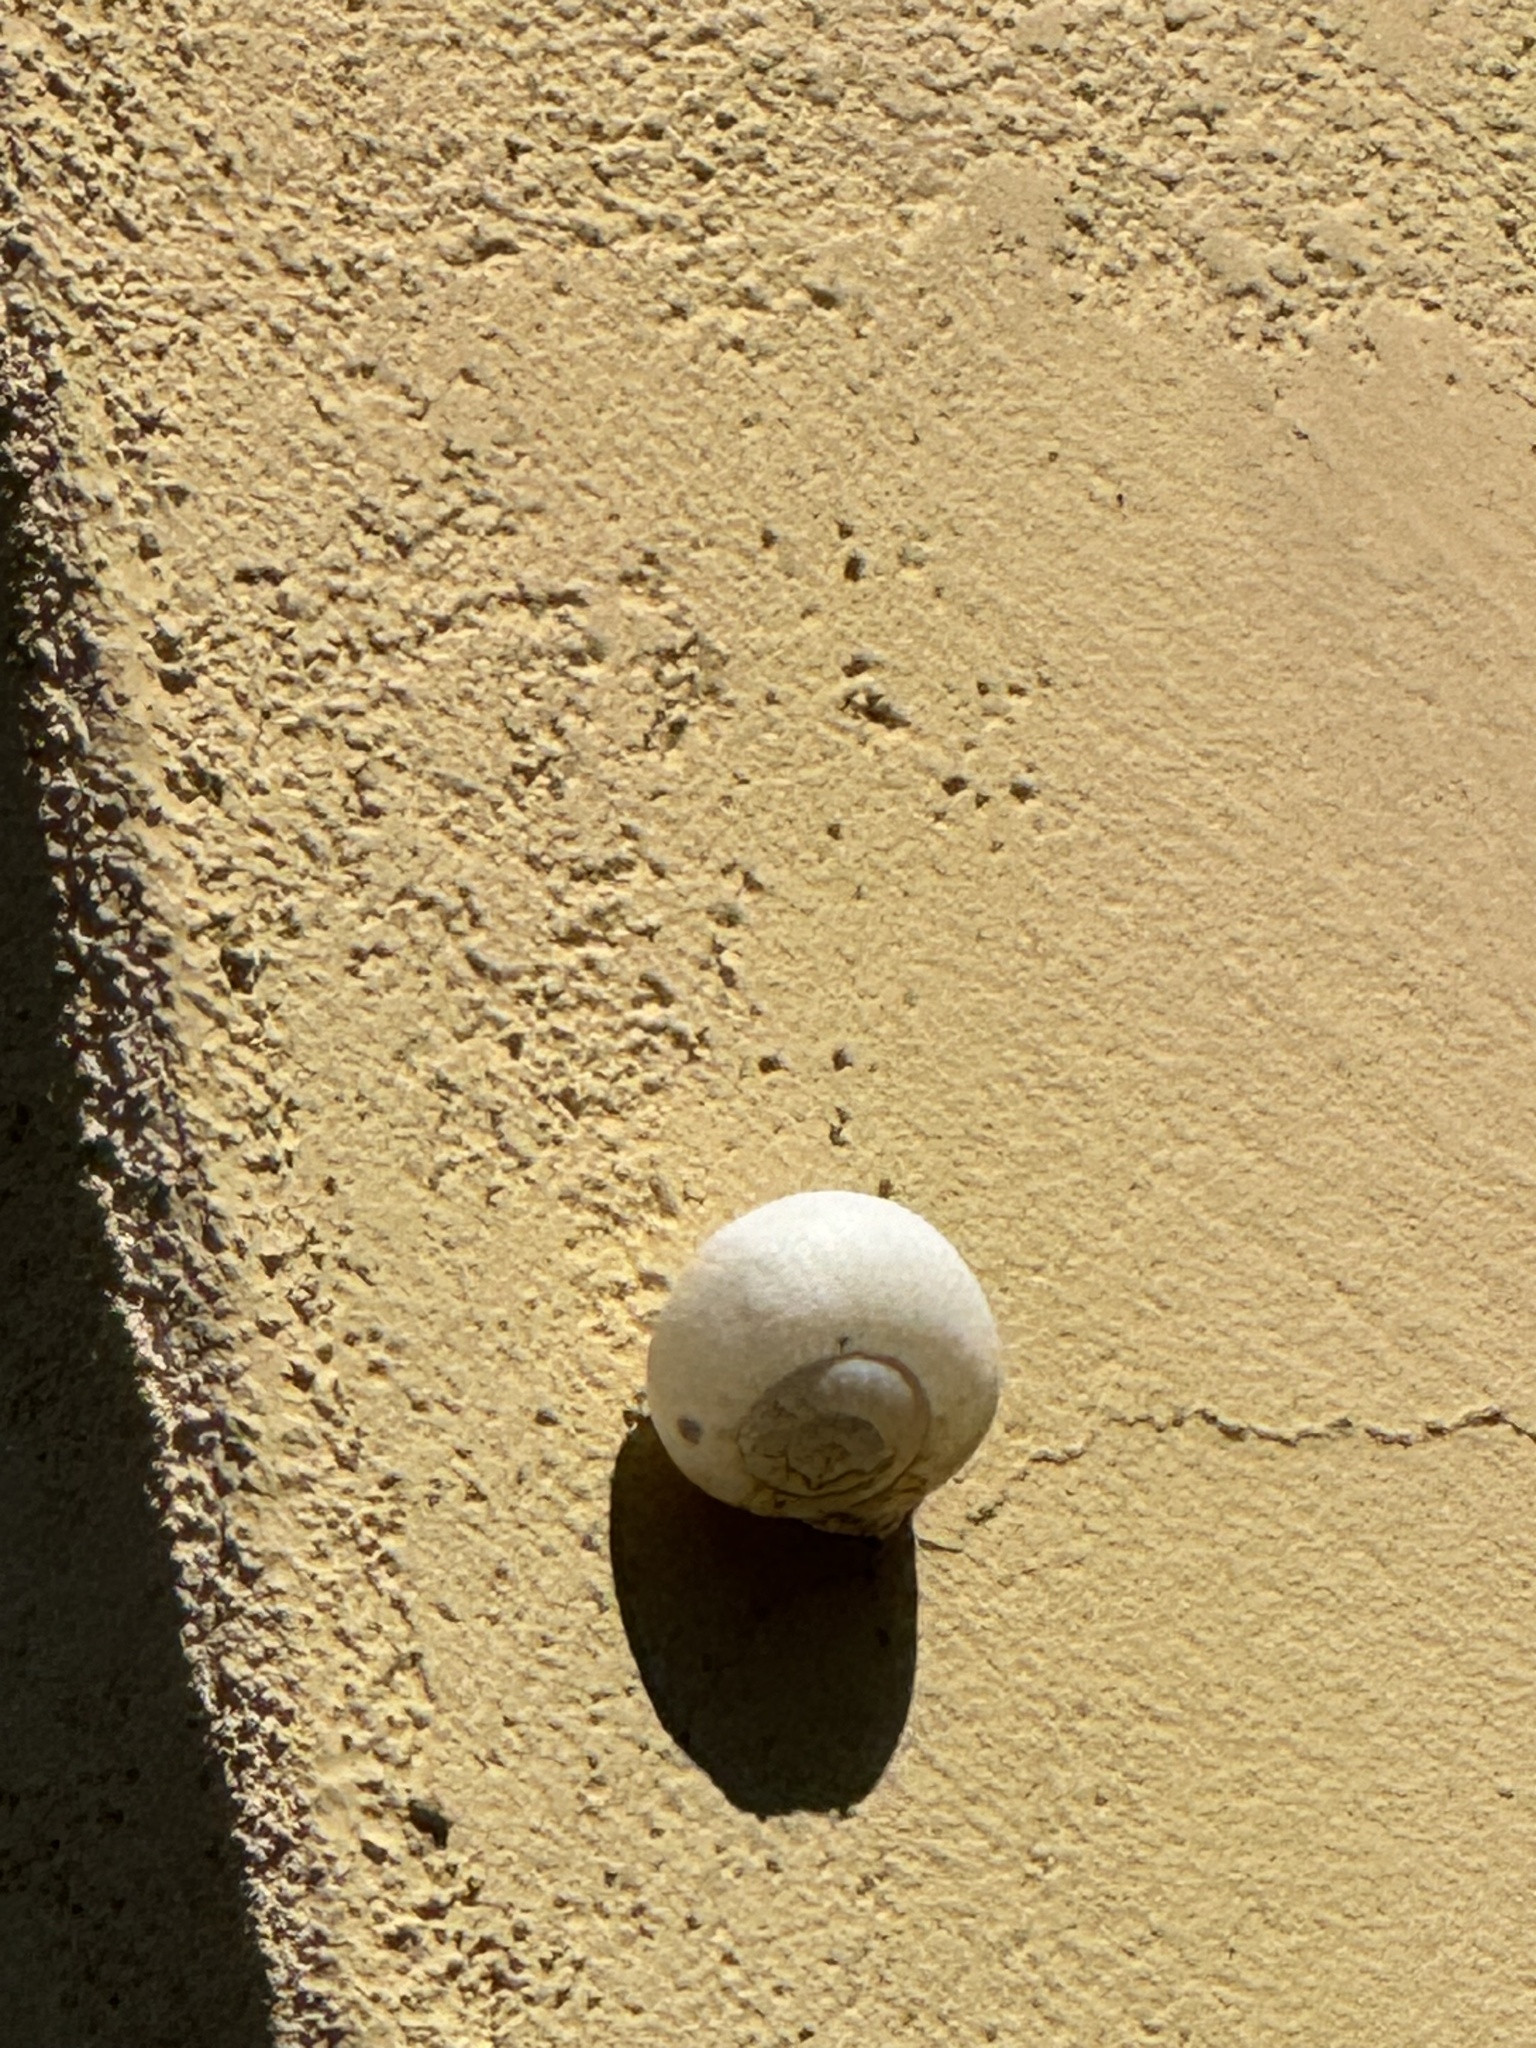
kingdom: Animalia
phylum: Mollusca
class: Gastropoda
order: Stylommatophora
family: Helicidae
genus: Otala
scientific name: Otala lactea
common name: Milk snail
